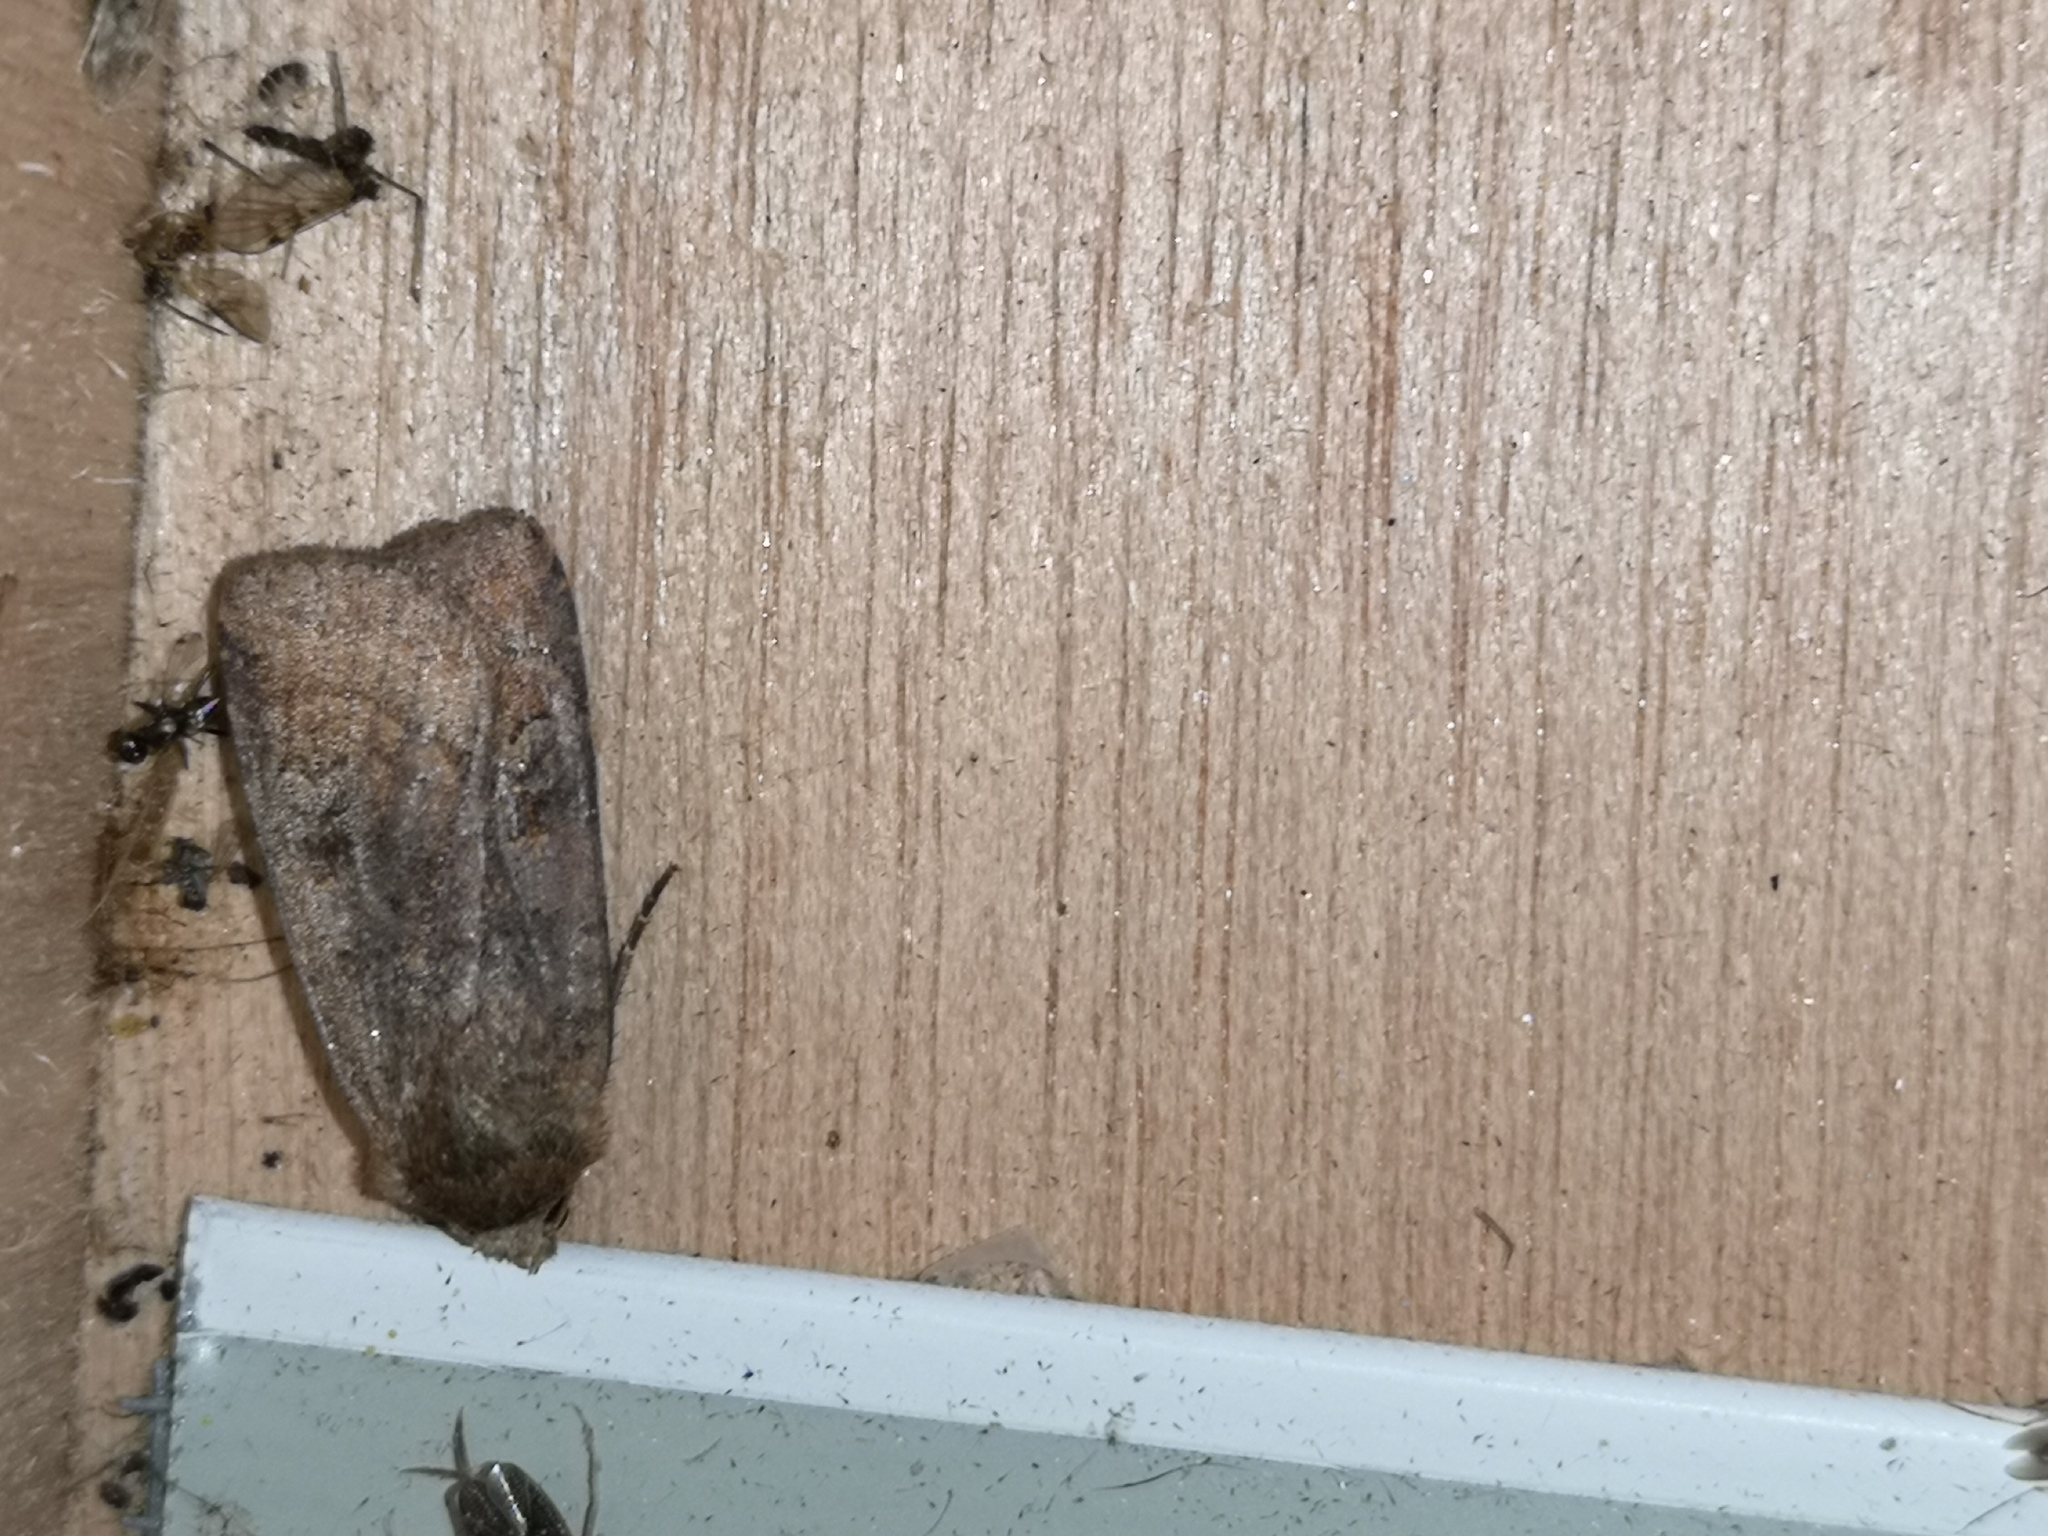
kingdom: Animalia
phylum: Arthropoda
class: Insecta
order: Lepidoptera
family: Noctuidae
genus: Diarsia
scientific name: Diarsia rubi
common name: Small square-spot
